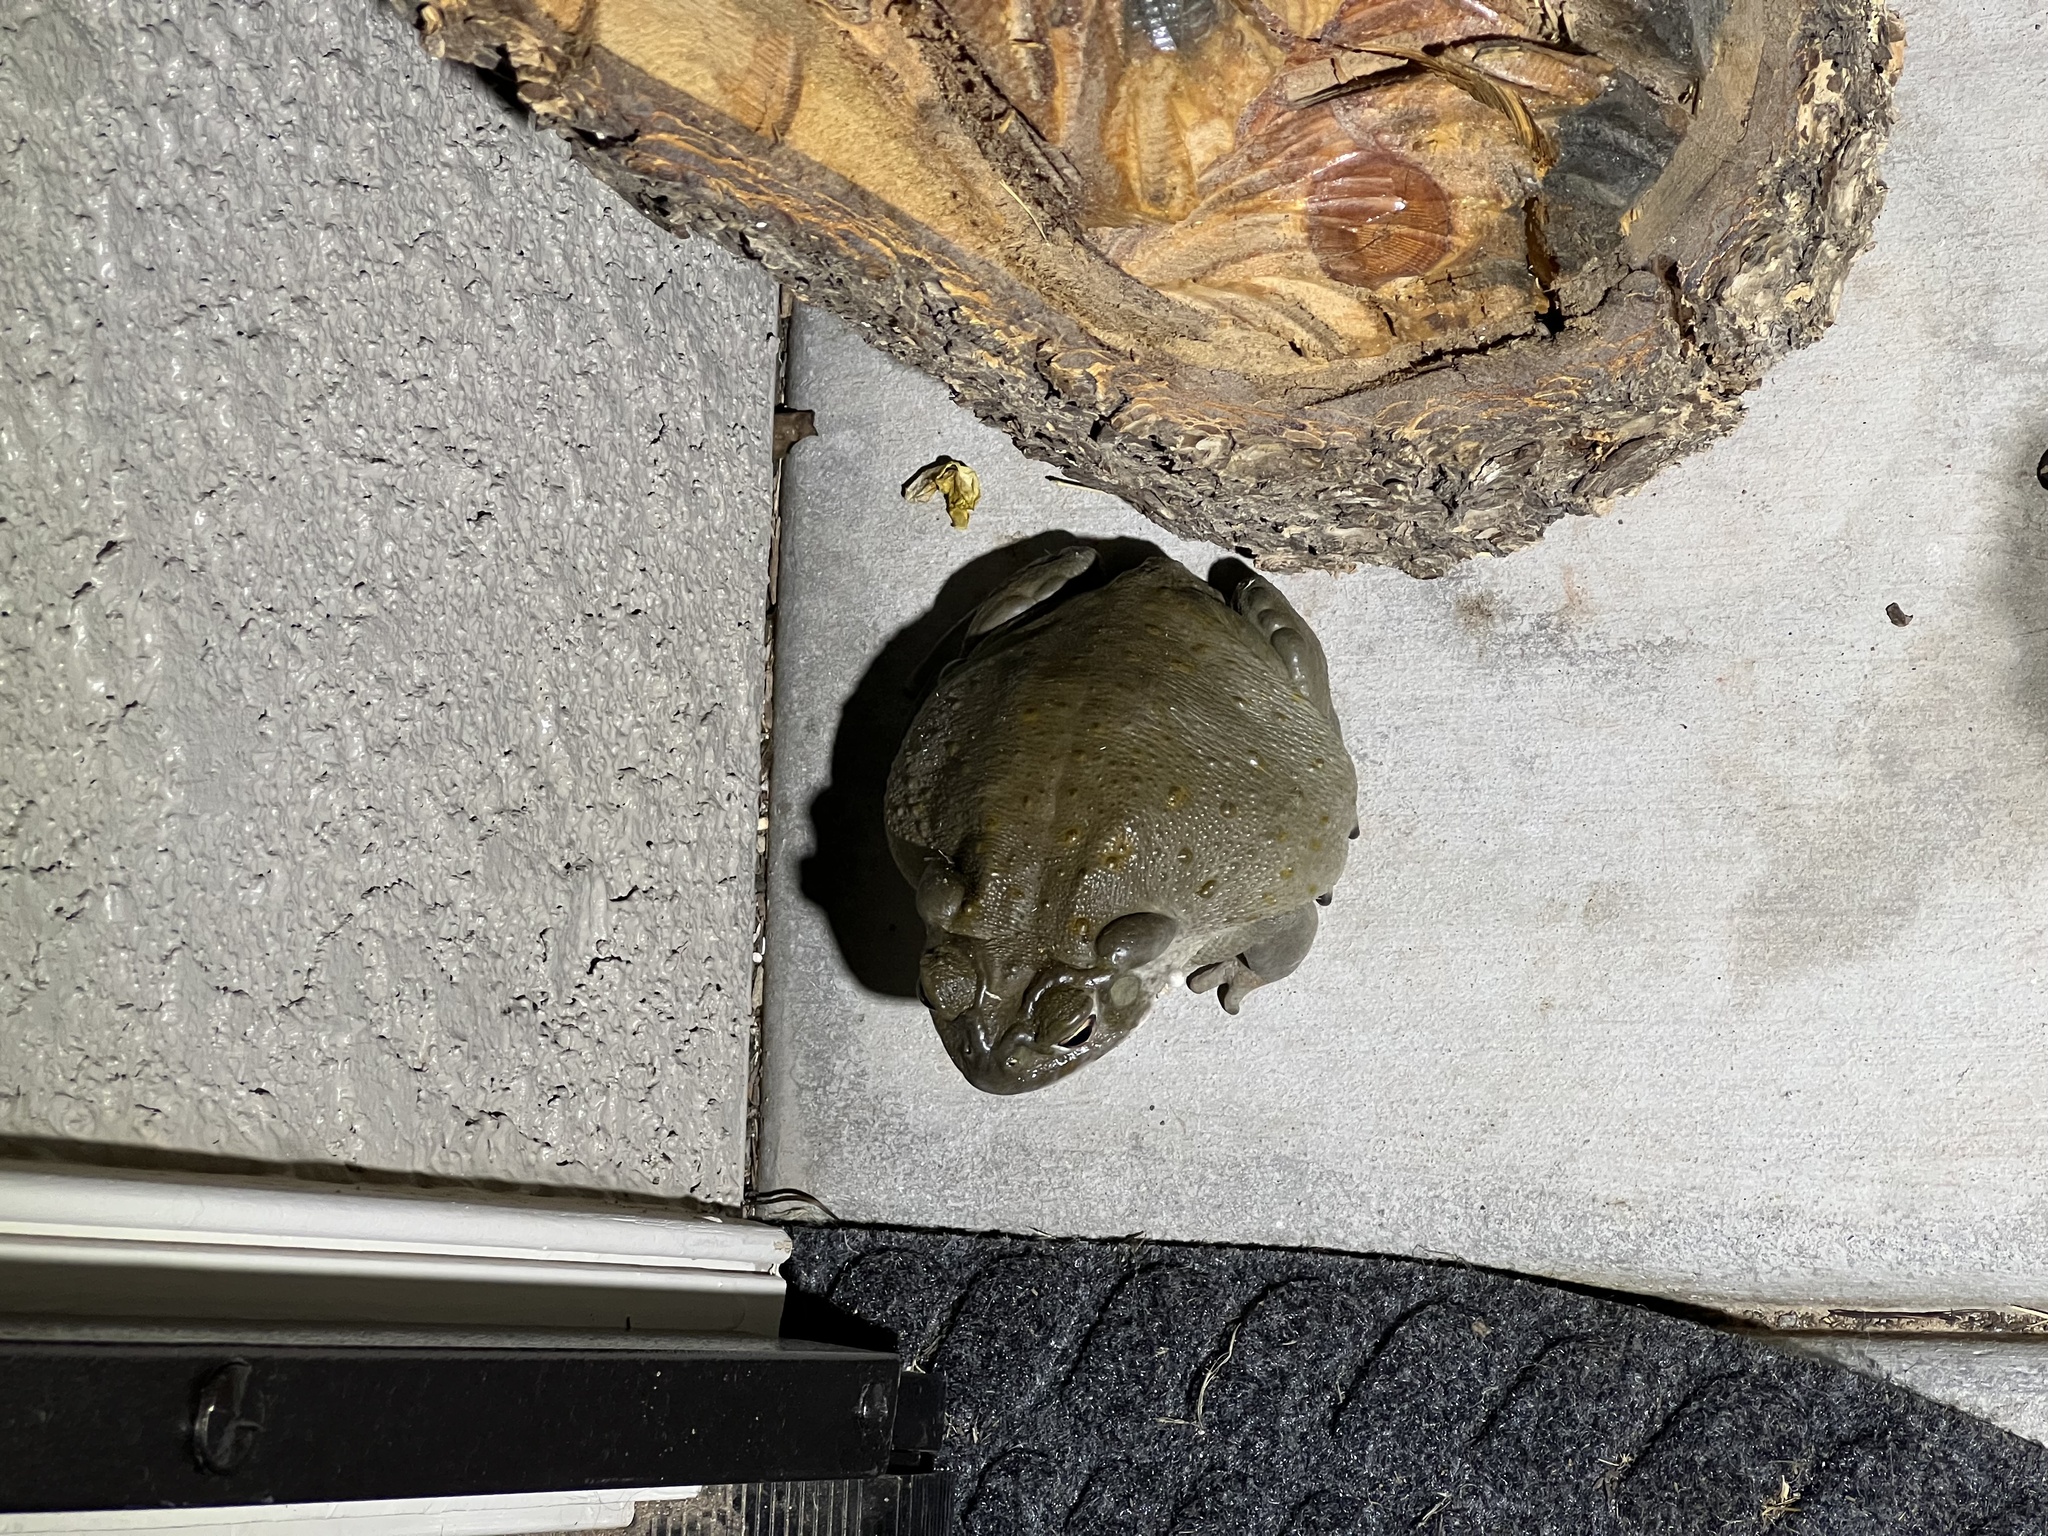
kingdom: Animalia
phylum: Chordata
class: Amphibia
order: Anura
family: Bufonidae
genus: Incilius
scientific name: Incilius alvarius
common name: Sonoran desert toad
